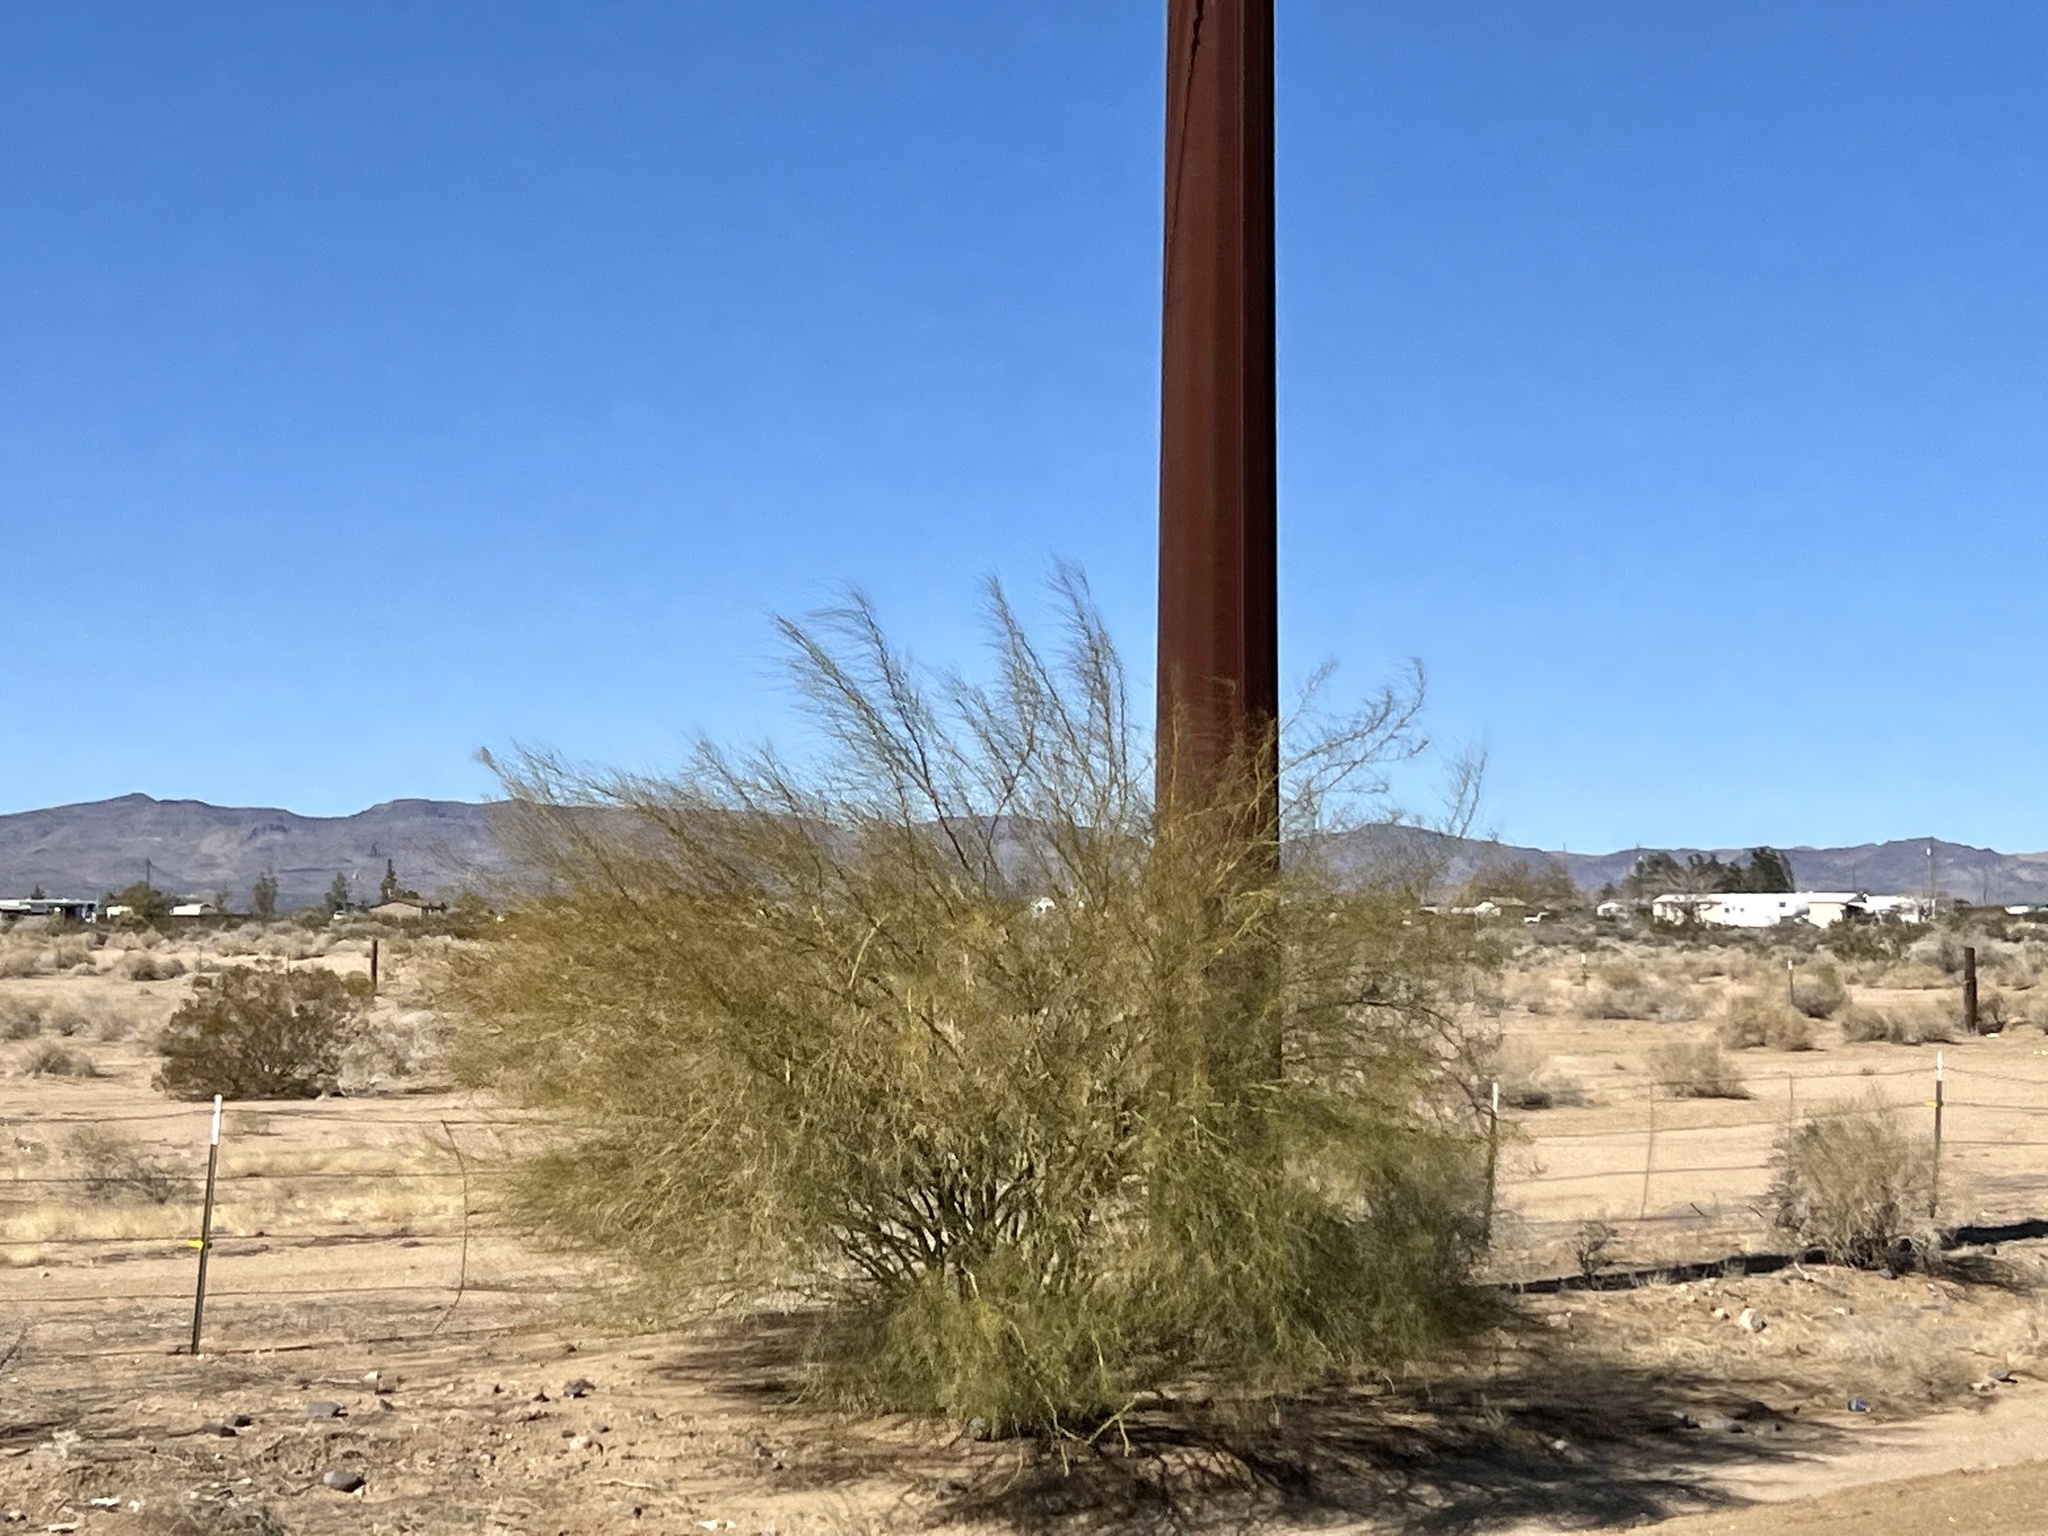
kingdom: Plantae
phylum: Tracheophyta
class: Magnoliopsida
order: Fabales
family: Fabaceae
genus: Parkinsonia
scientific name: Parkinsonia aculeata
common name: Jerusalem thorn
